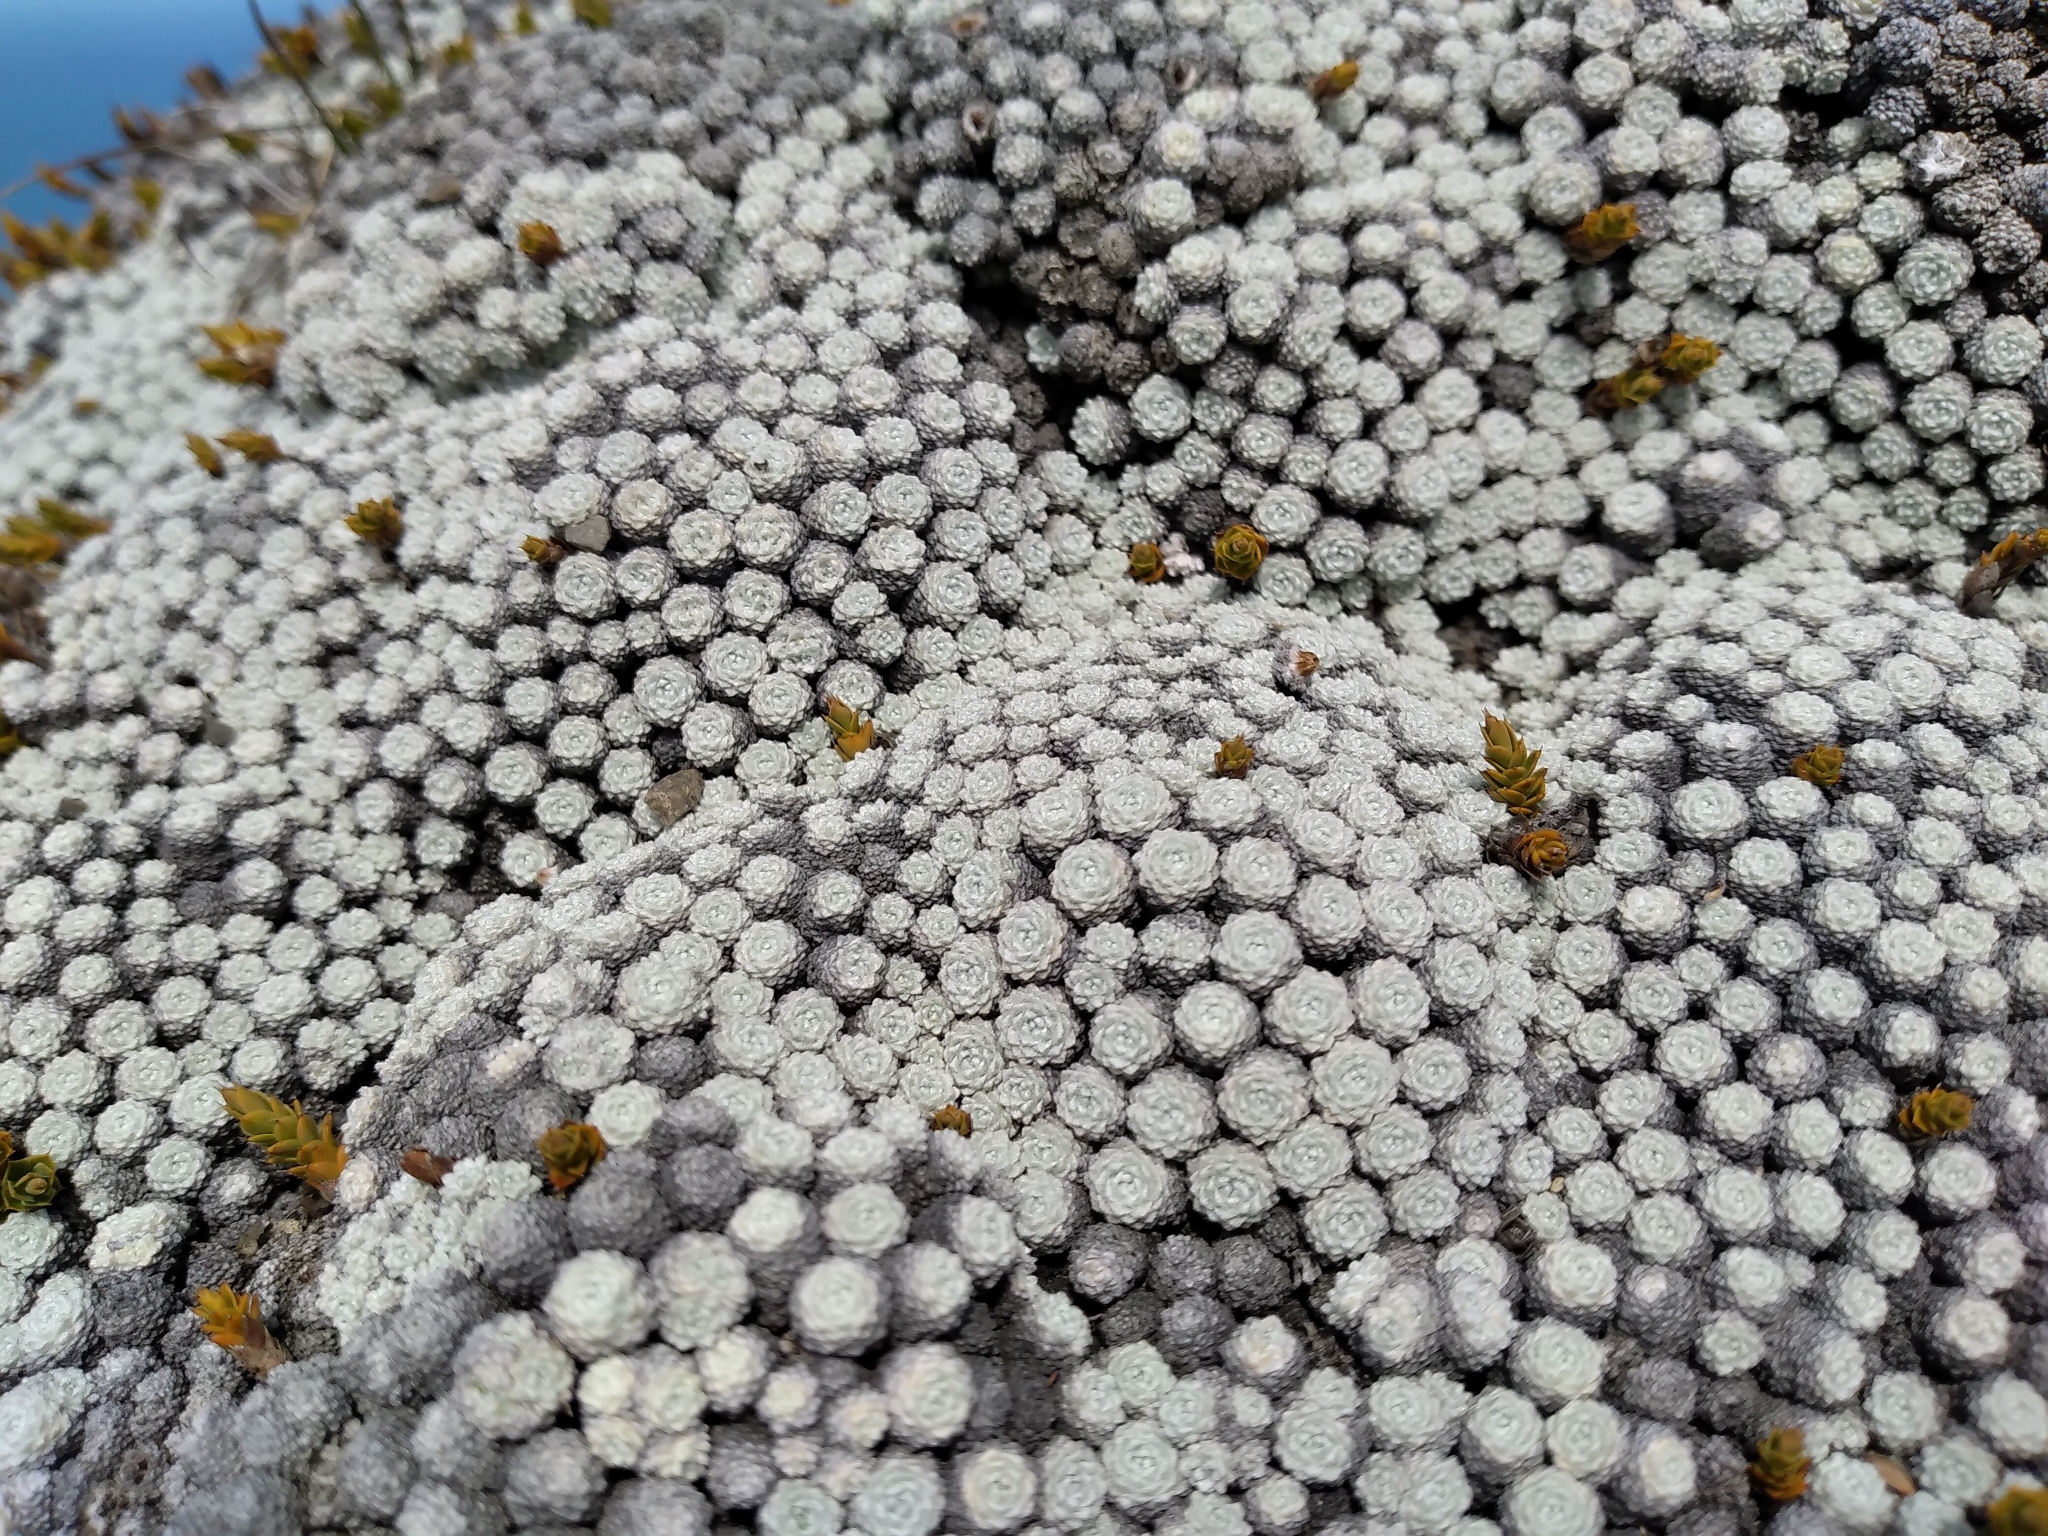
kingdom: Plantae
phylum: Tracheophyta
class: Magnoliopsida
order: Asterales
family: Asteraceae
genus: Raoulia
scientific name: Raoulia bryoides
